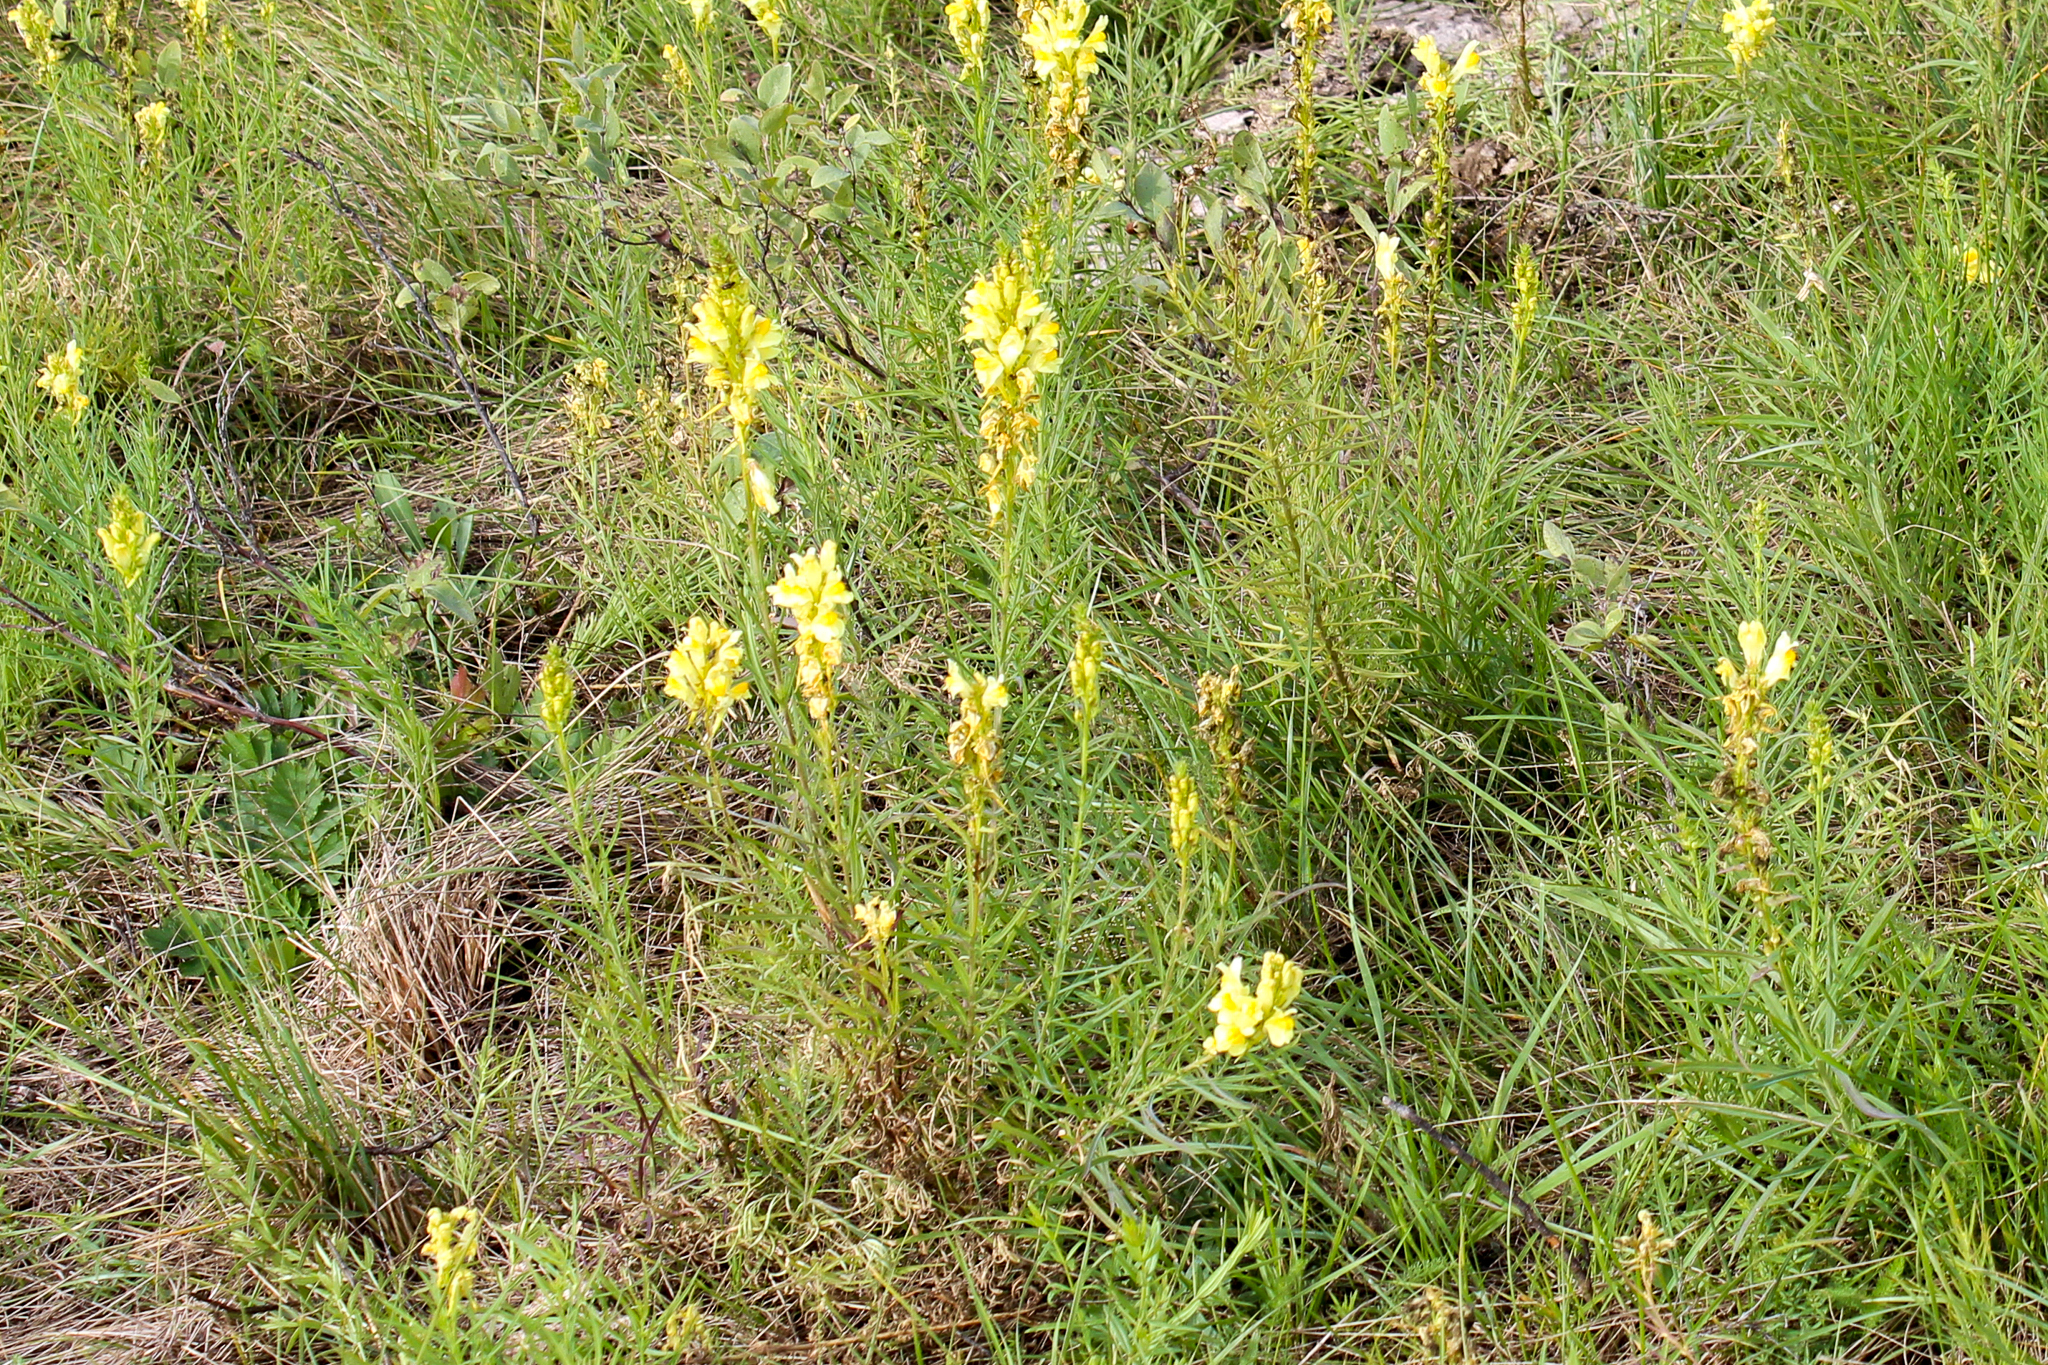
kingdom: Plantae
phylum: Tracheophyta
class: Magnoliopsida
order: Lamiales
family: Plantaginaceae
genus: Linaria
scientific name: Linaria vulgaris
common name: Butter and eggs
